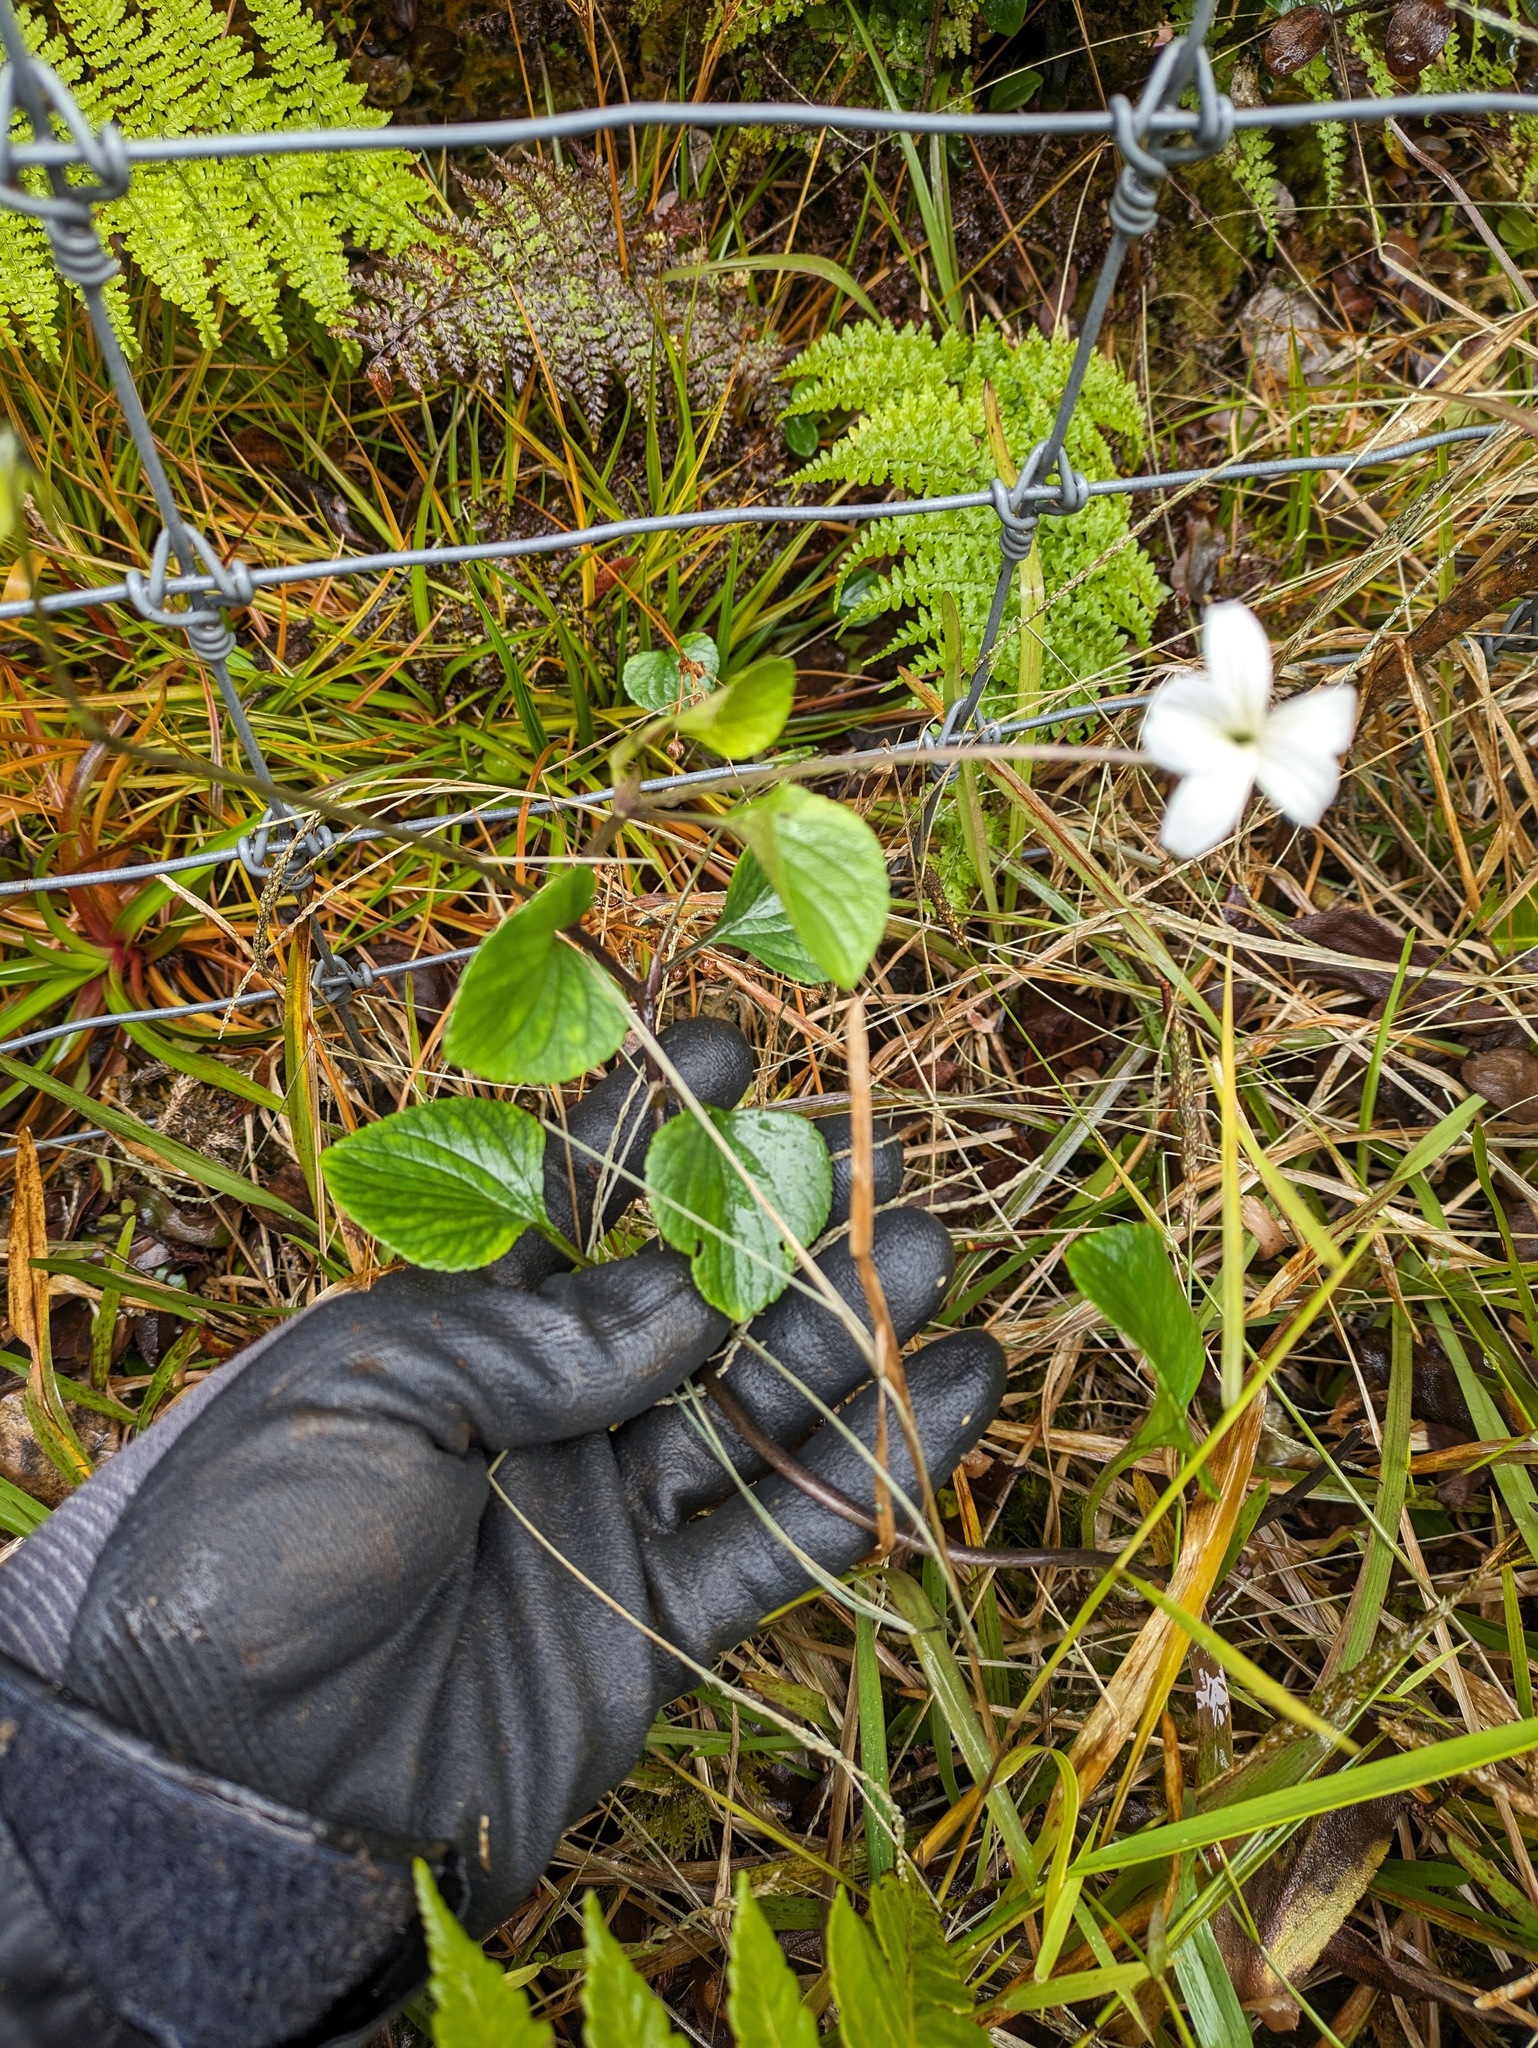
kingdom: Plantae
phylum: Tracheophyta
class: Magnoliopsida
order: Malpighiales
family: Violaceae
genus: Viola
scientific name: Viola kauaensis
